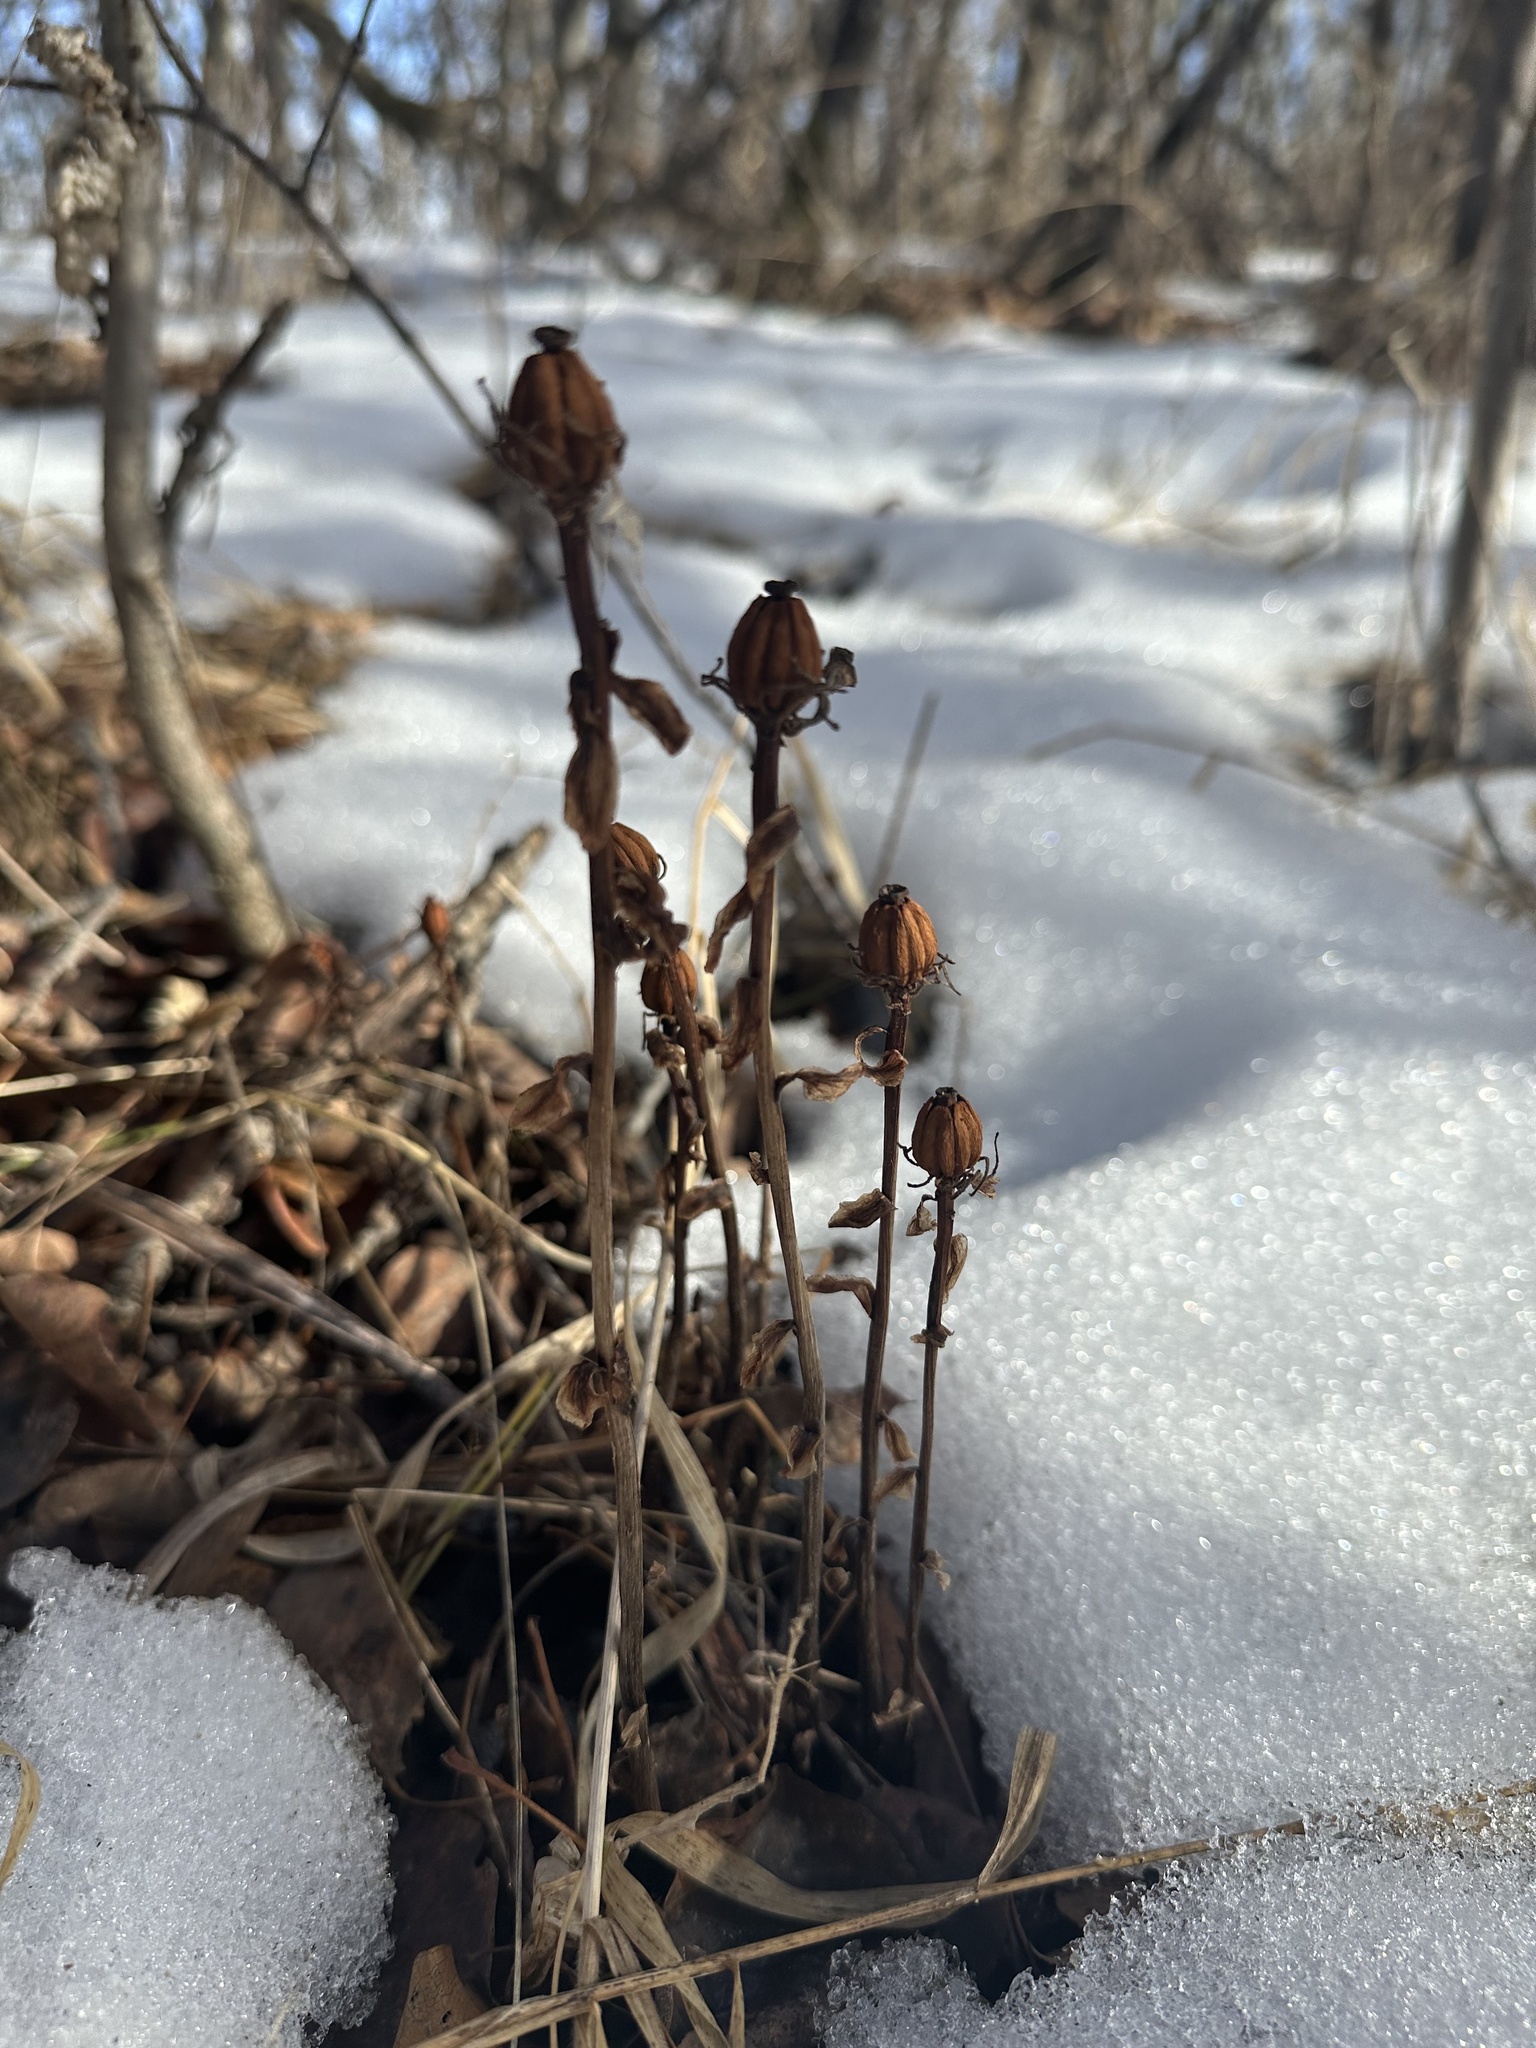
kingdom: Plantae
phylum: Tracheophyta
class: Magnoliopsida
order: Ericales
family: Ericaceae
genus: Monotropa
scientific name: Monotropa uniflora
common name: Convulsion root
